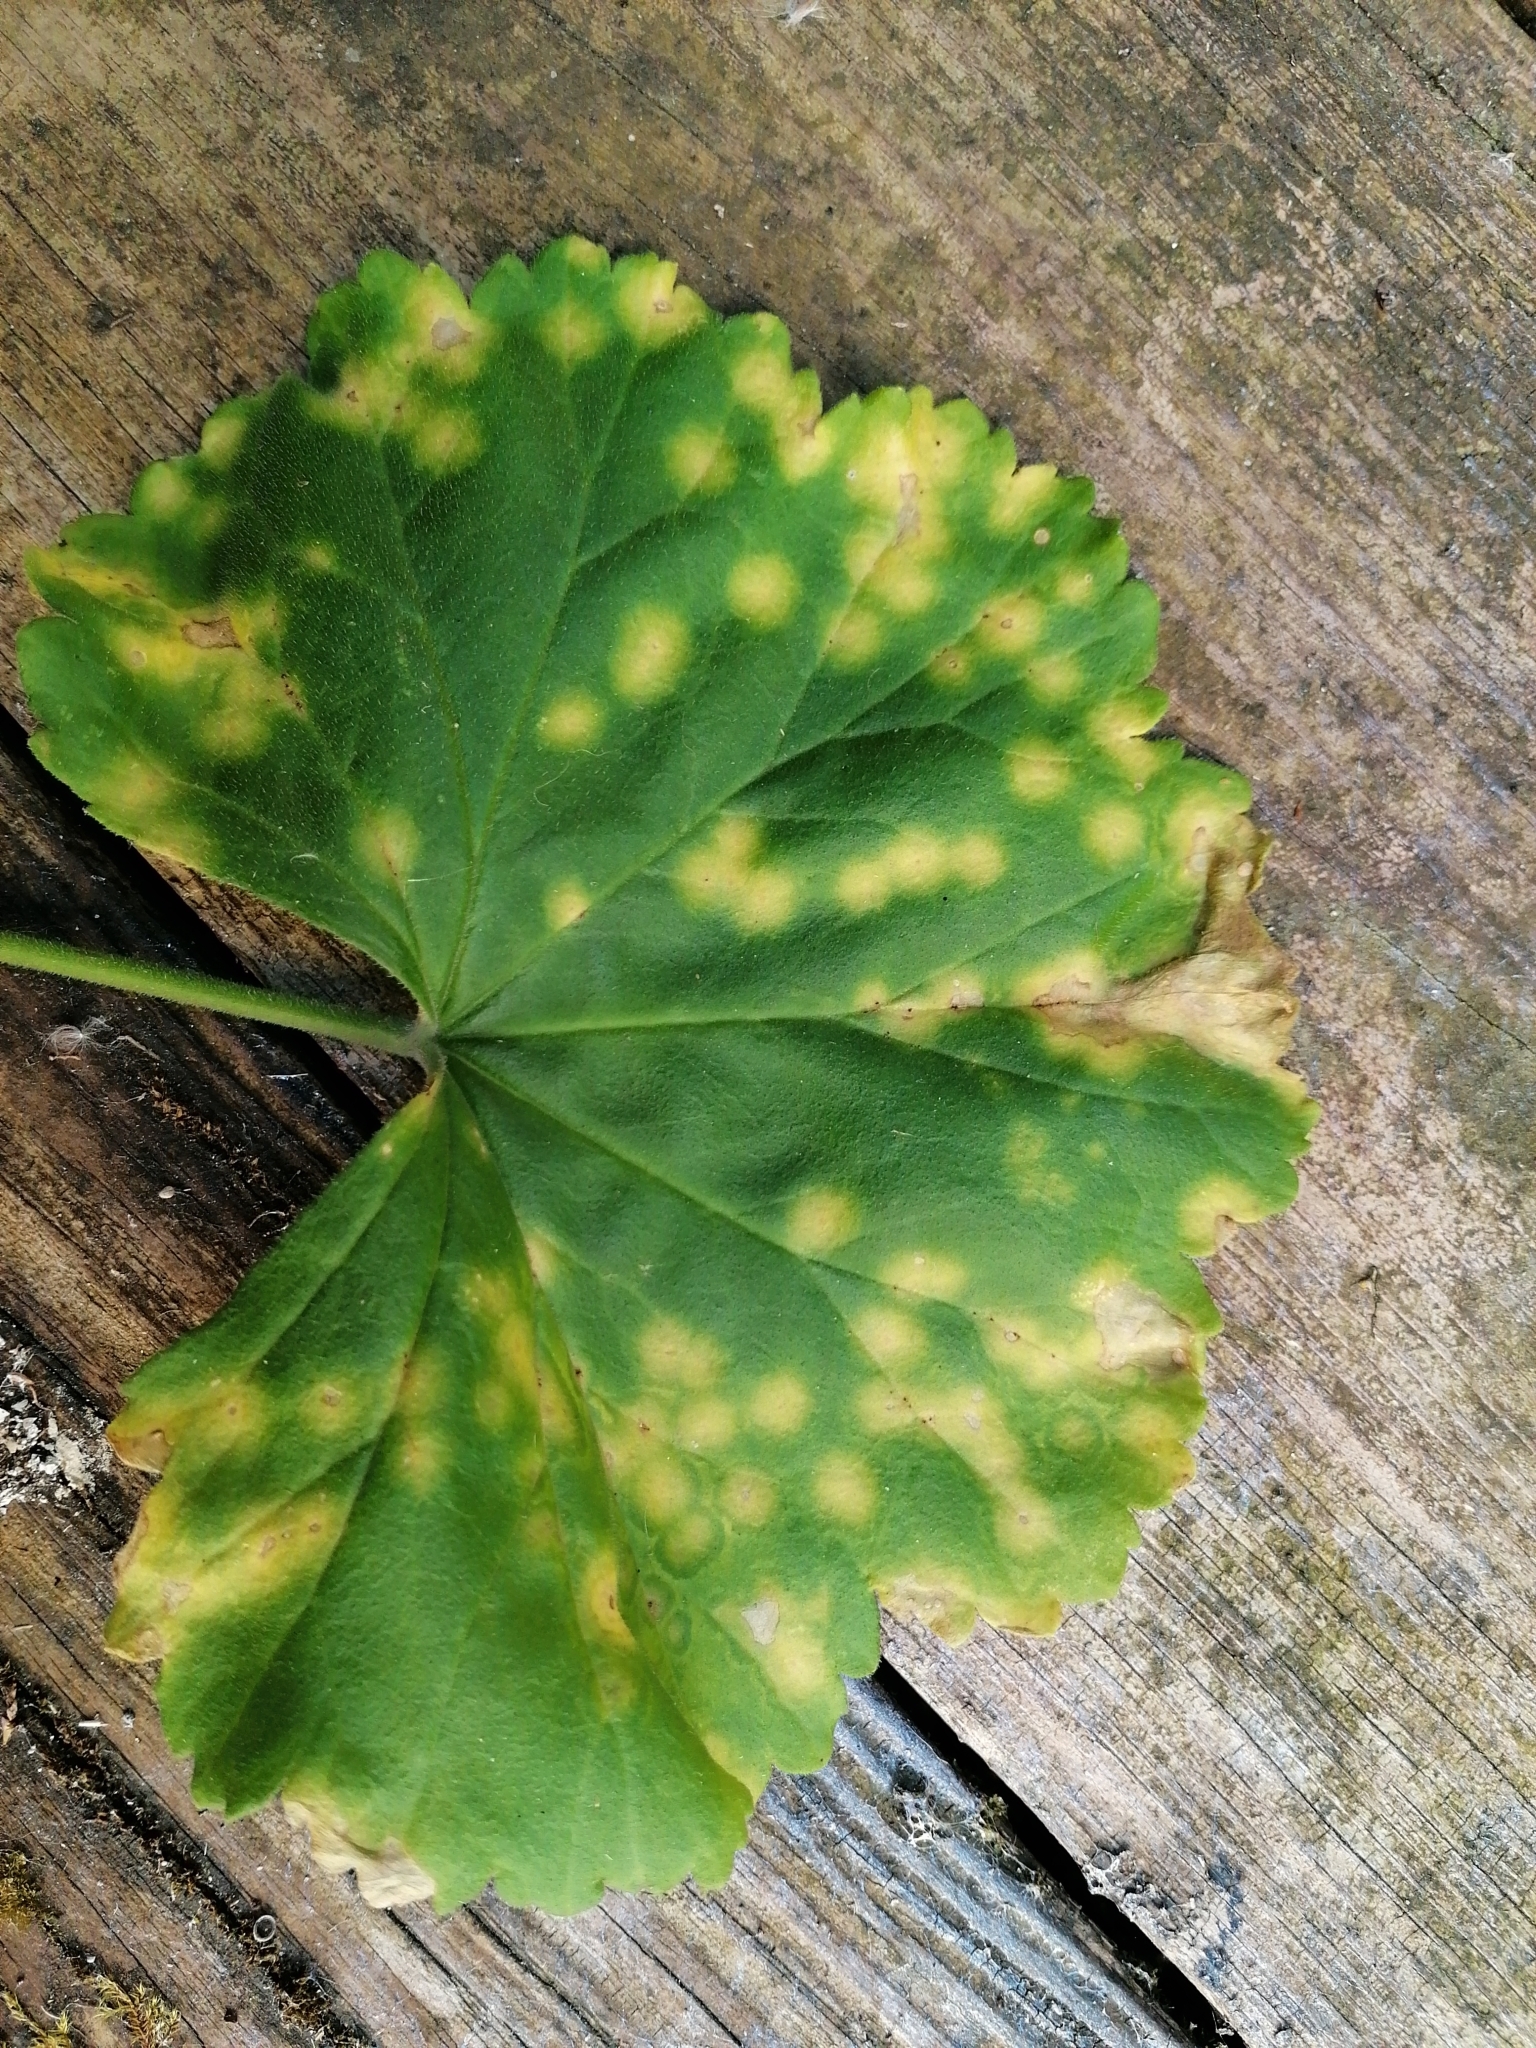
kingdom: Fungi
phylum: Basidiomycota
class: Pucciniomycetes
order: Pucciniales
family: Pucciniaceae
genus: Puccinia
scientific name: Puccinia pelargonii-zonalis
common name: Rust of pelargonium
